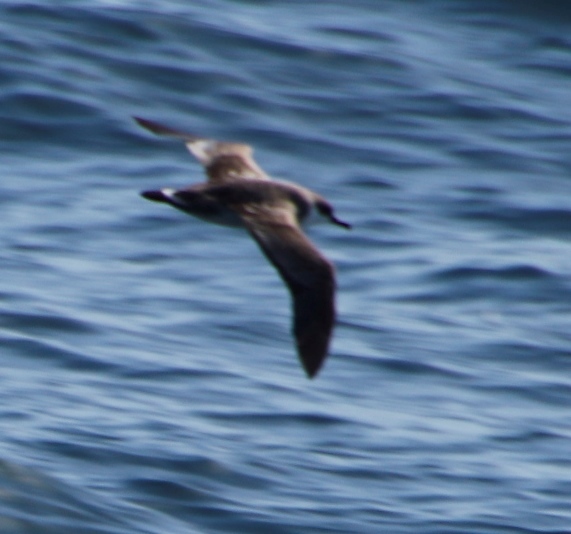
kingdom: Animalia
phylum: Chordata
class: Aves
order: Procellariiformes
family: Procellariidae
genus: Puffinus
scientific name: Puffinus gravis
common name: Great shearwater
